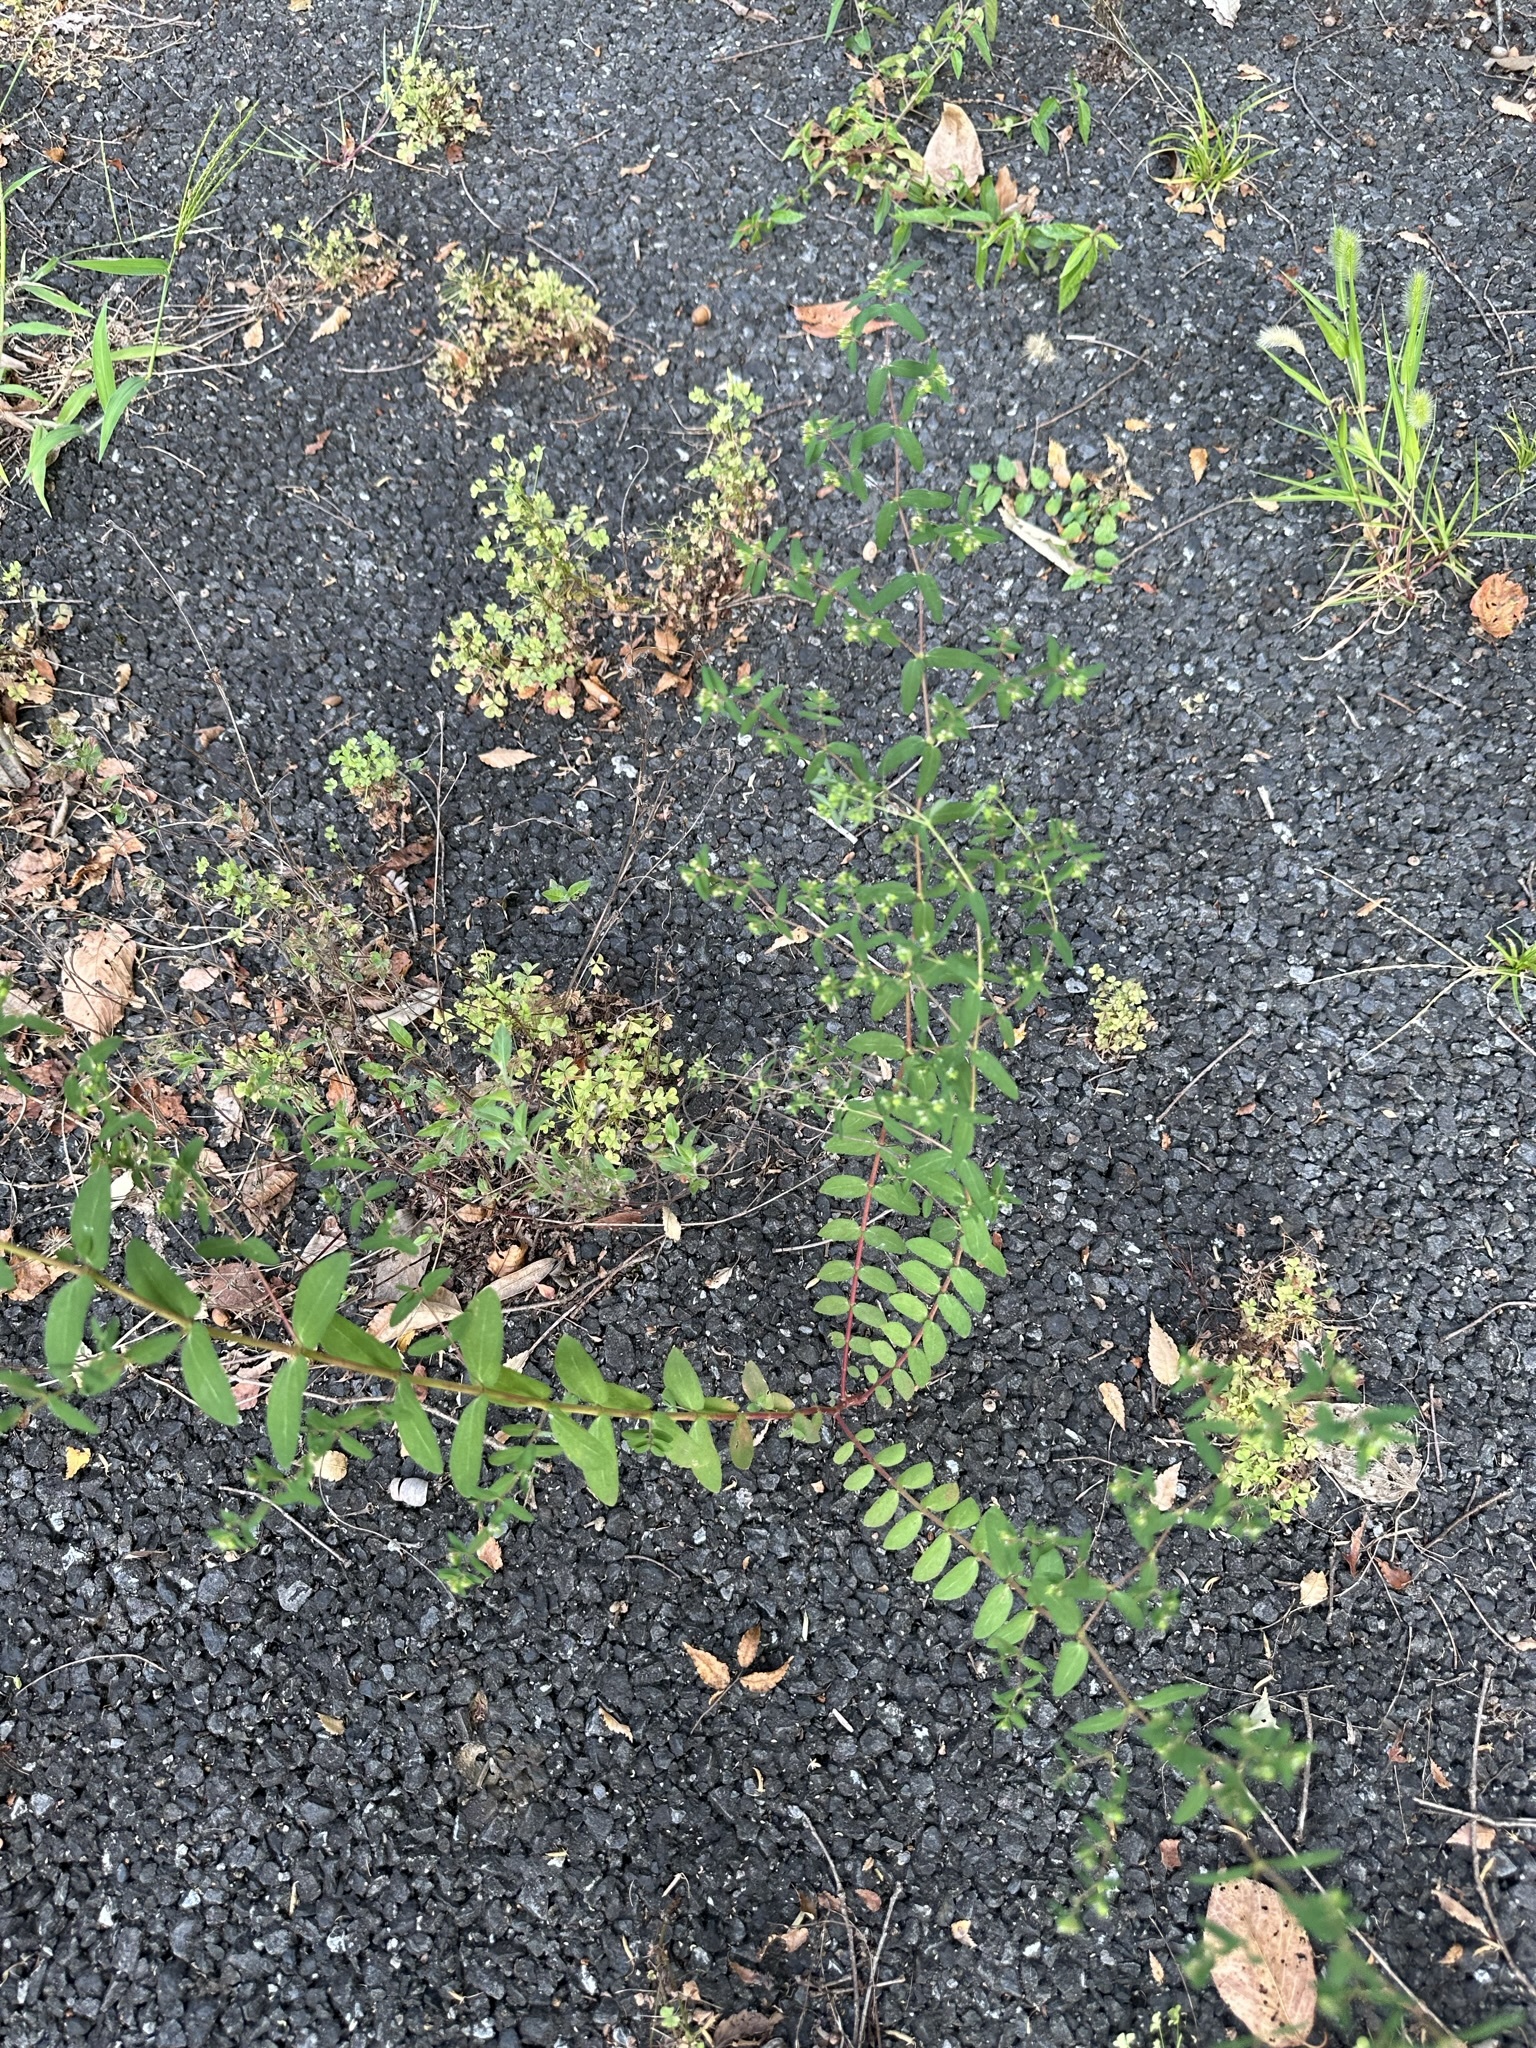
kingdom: Plantae
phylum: Tracheophyta
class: Magnoliopsida
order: Malpighiales
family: Euphorbiaceae
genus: Euphorbia
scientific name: Euphorbia nutans
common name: Eyebane
